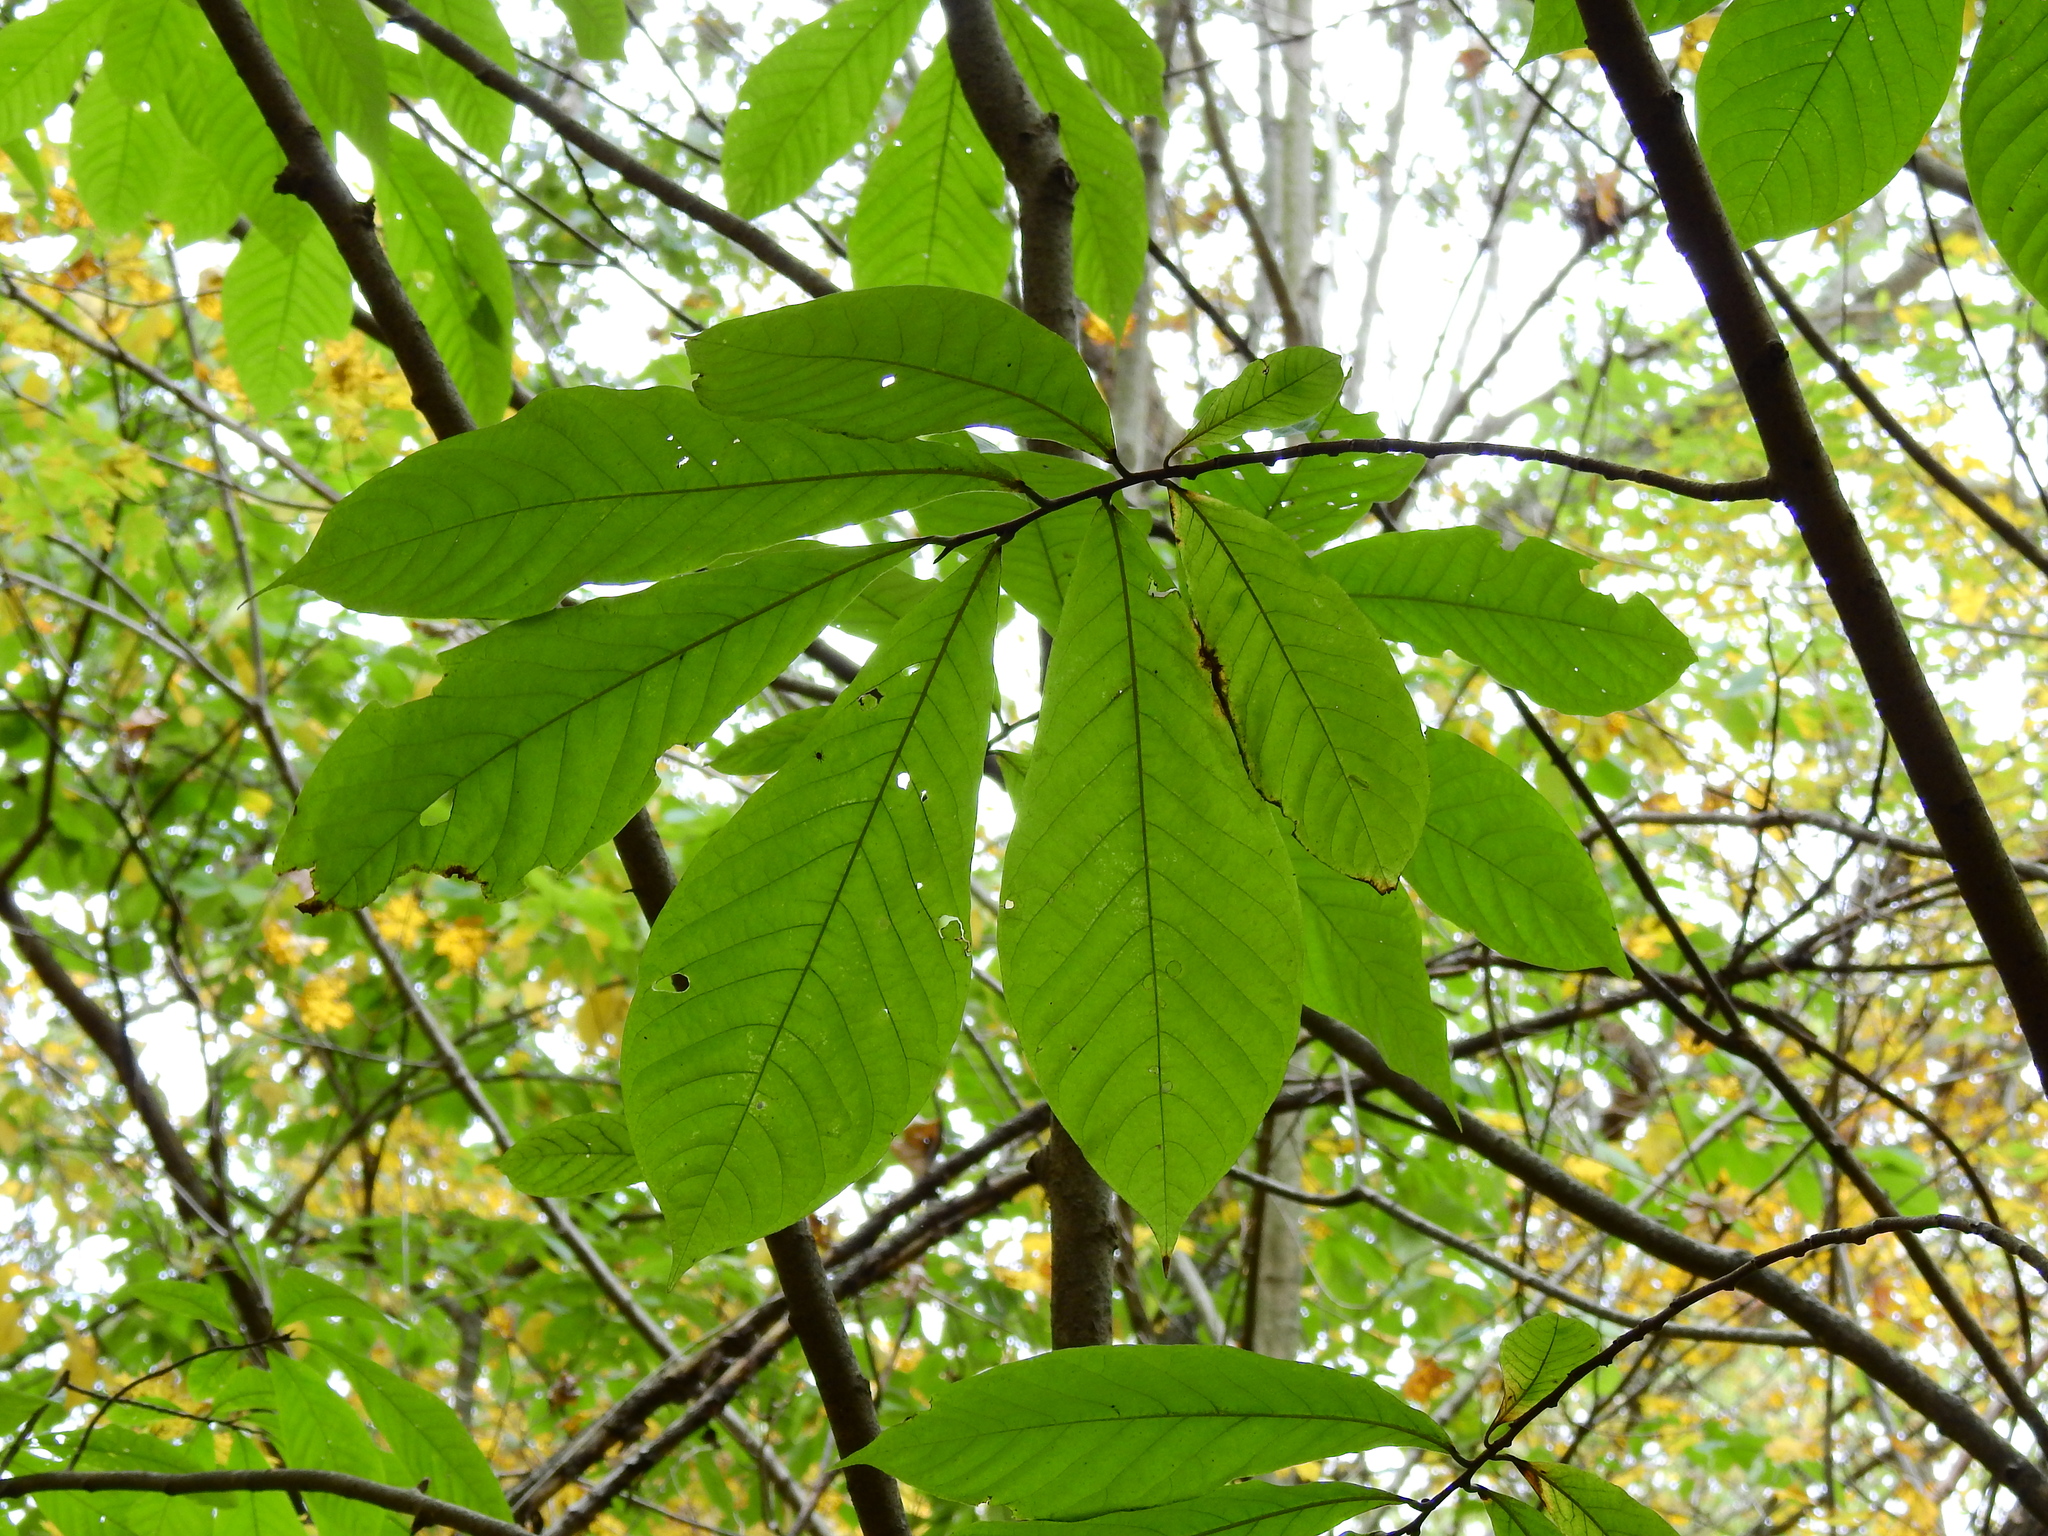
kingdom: Plantae
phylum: Tracheophyta
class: Magnoliopsida
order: Magnoliales
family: Annonaceae
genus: Asimina
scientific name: Asimina triloba
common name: Dog-banana
